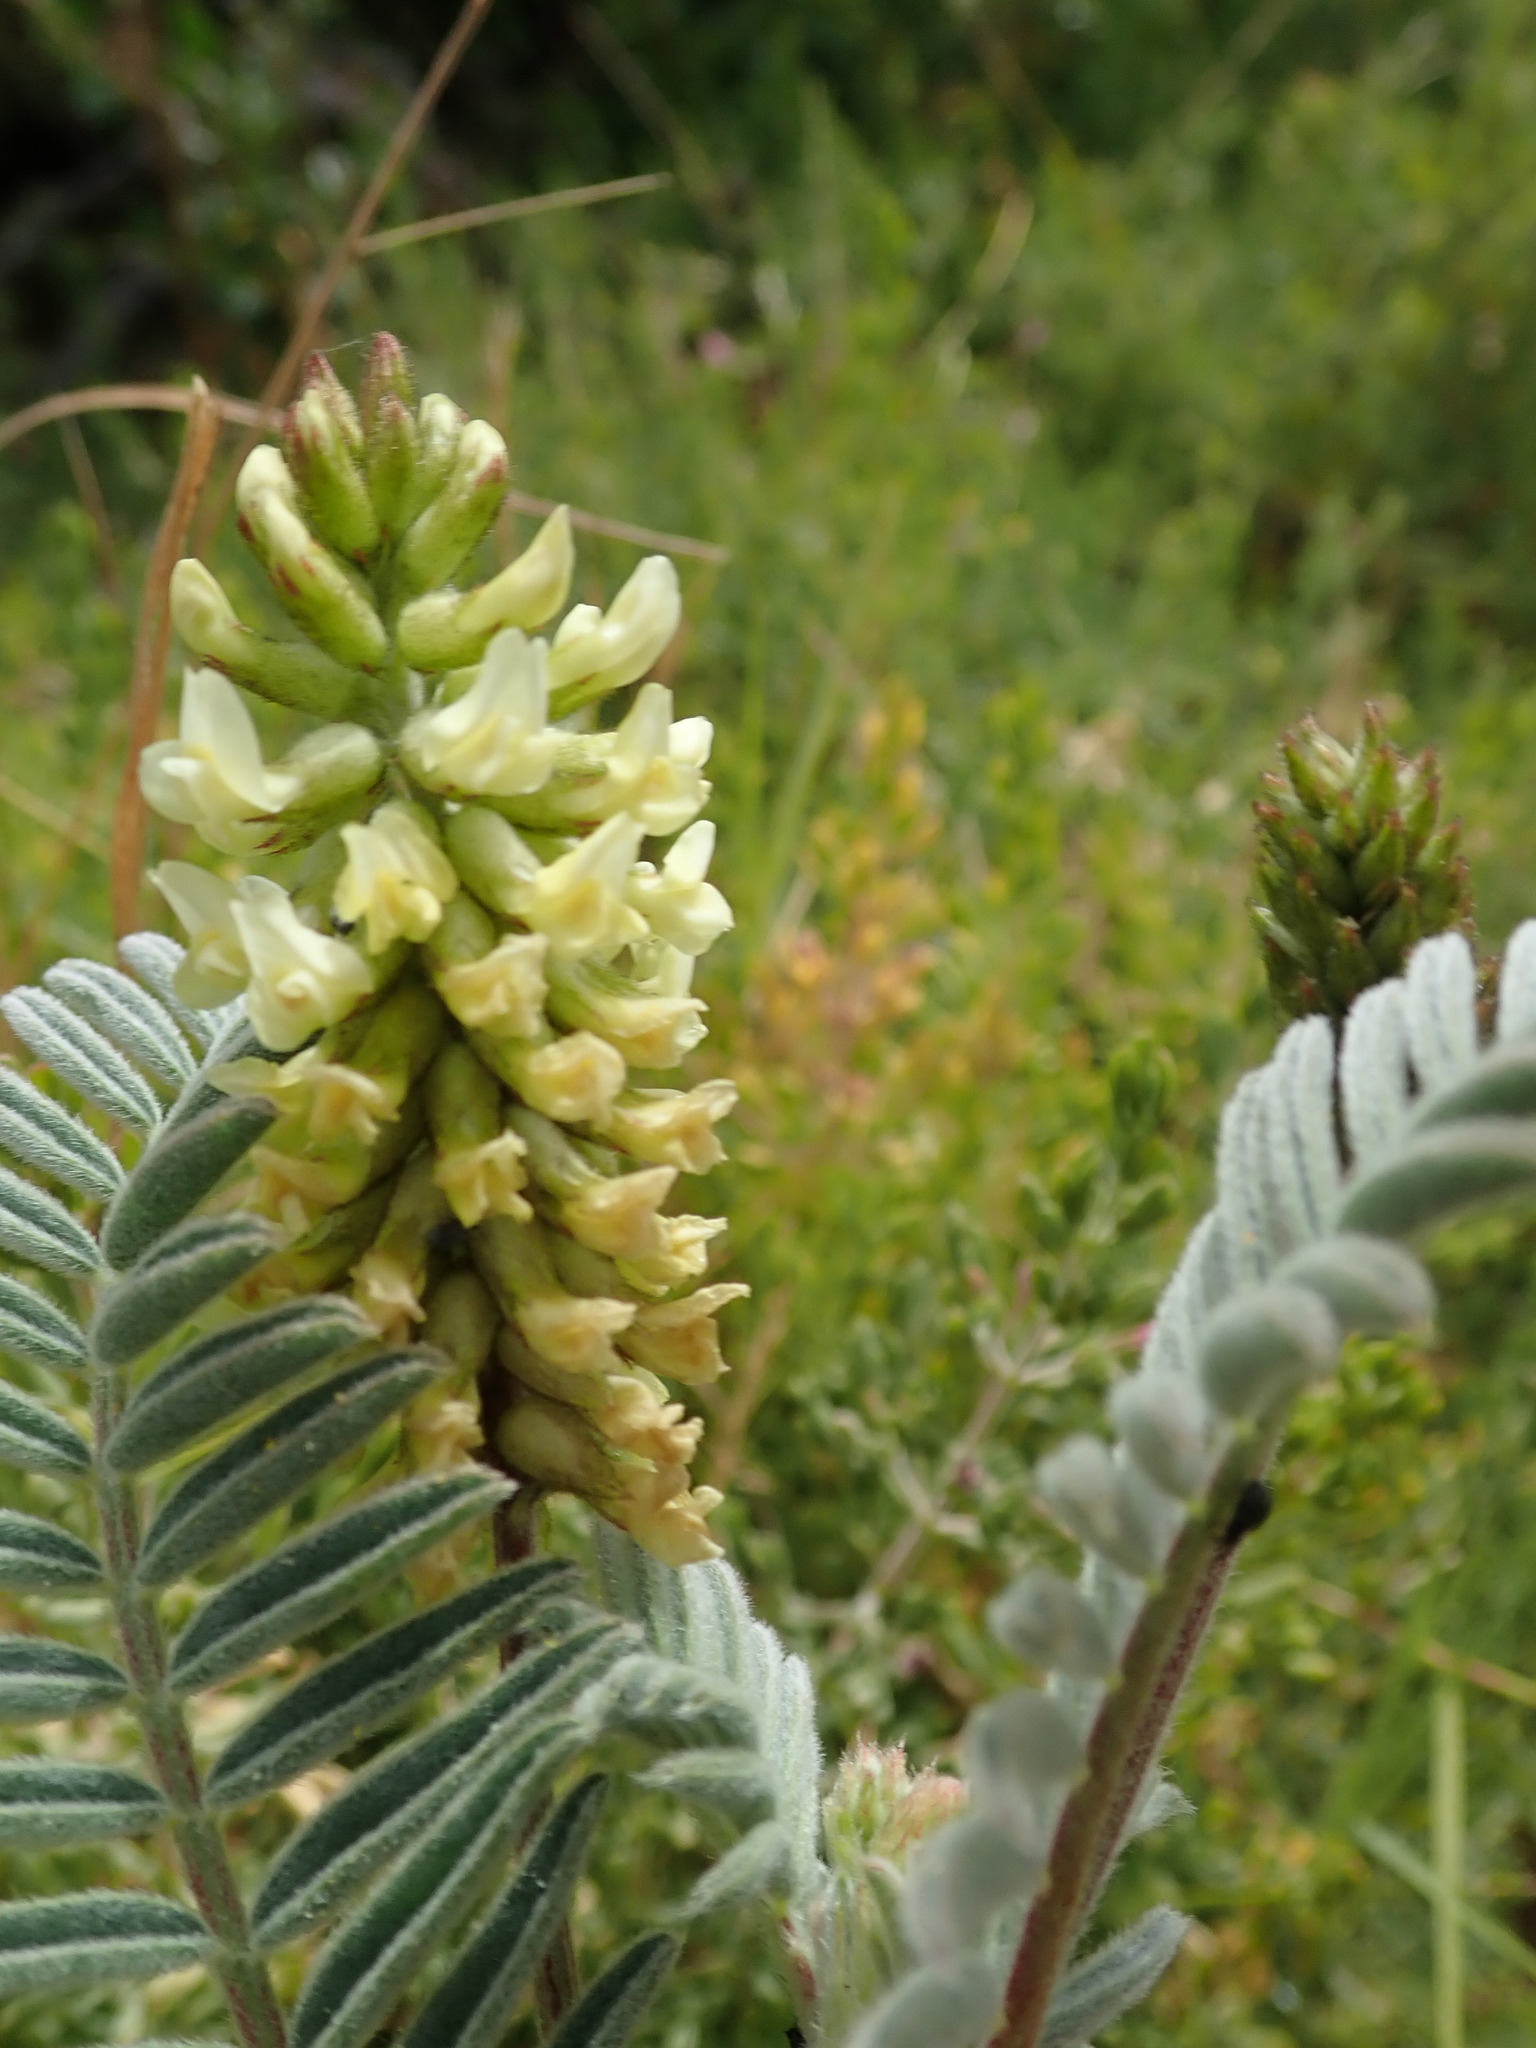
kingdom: Plantae
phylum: Tracheophyta
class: Magnoliopsida
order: Fabales
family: Fabaceae
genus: Astragalus
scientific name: Astragalus pycnostachyus
